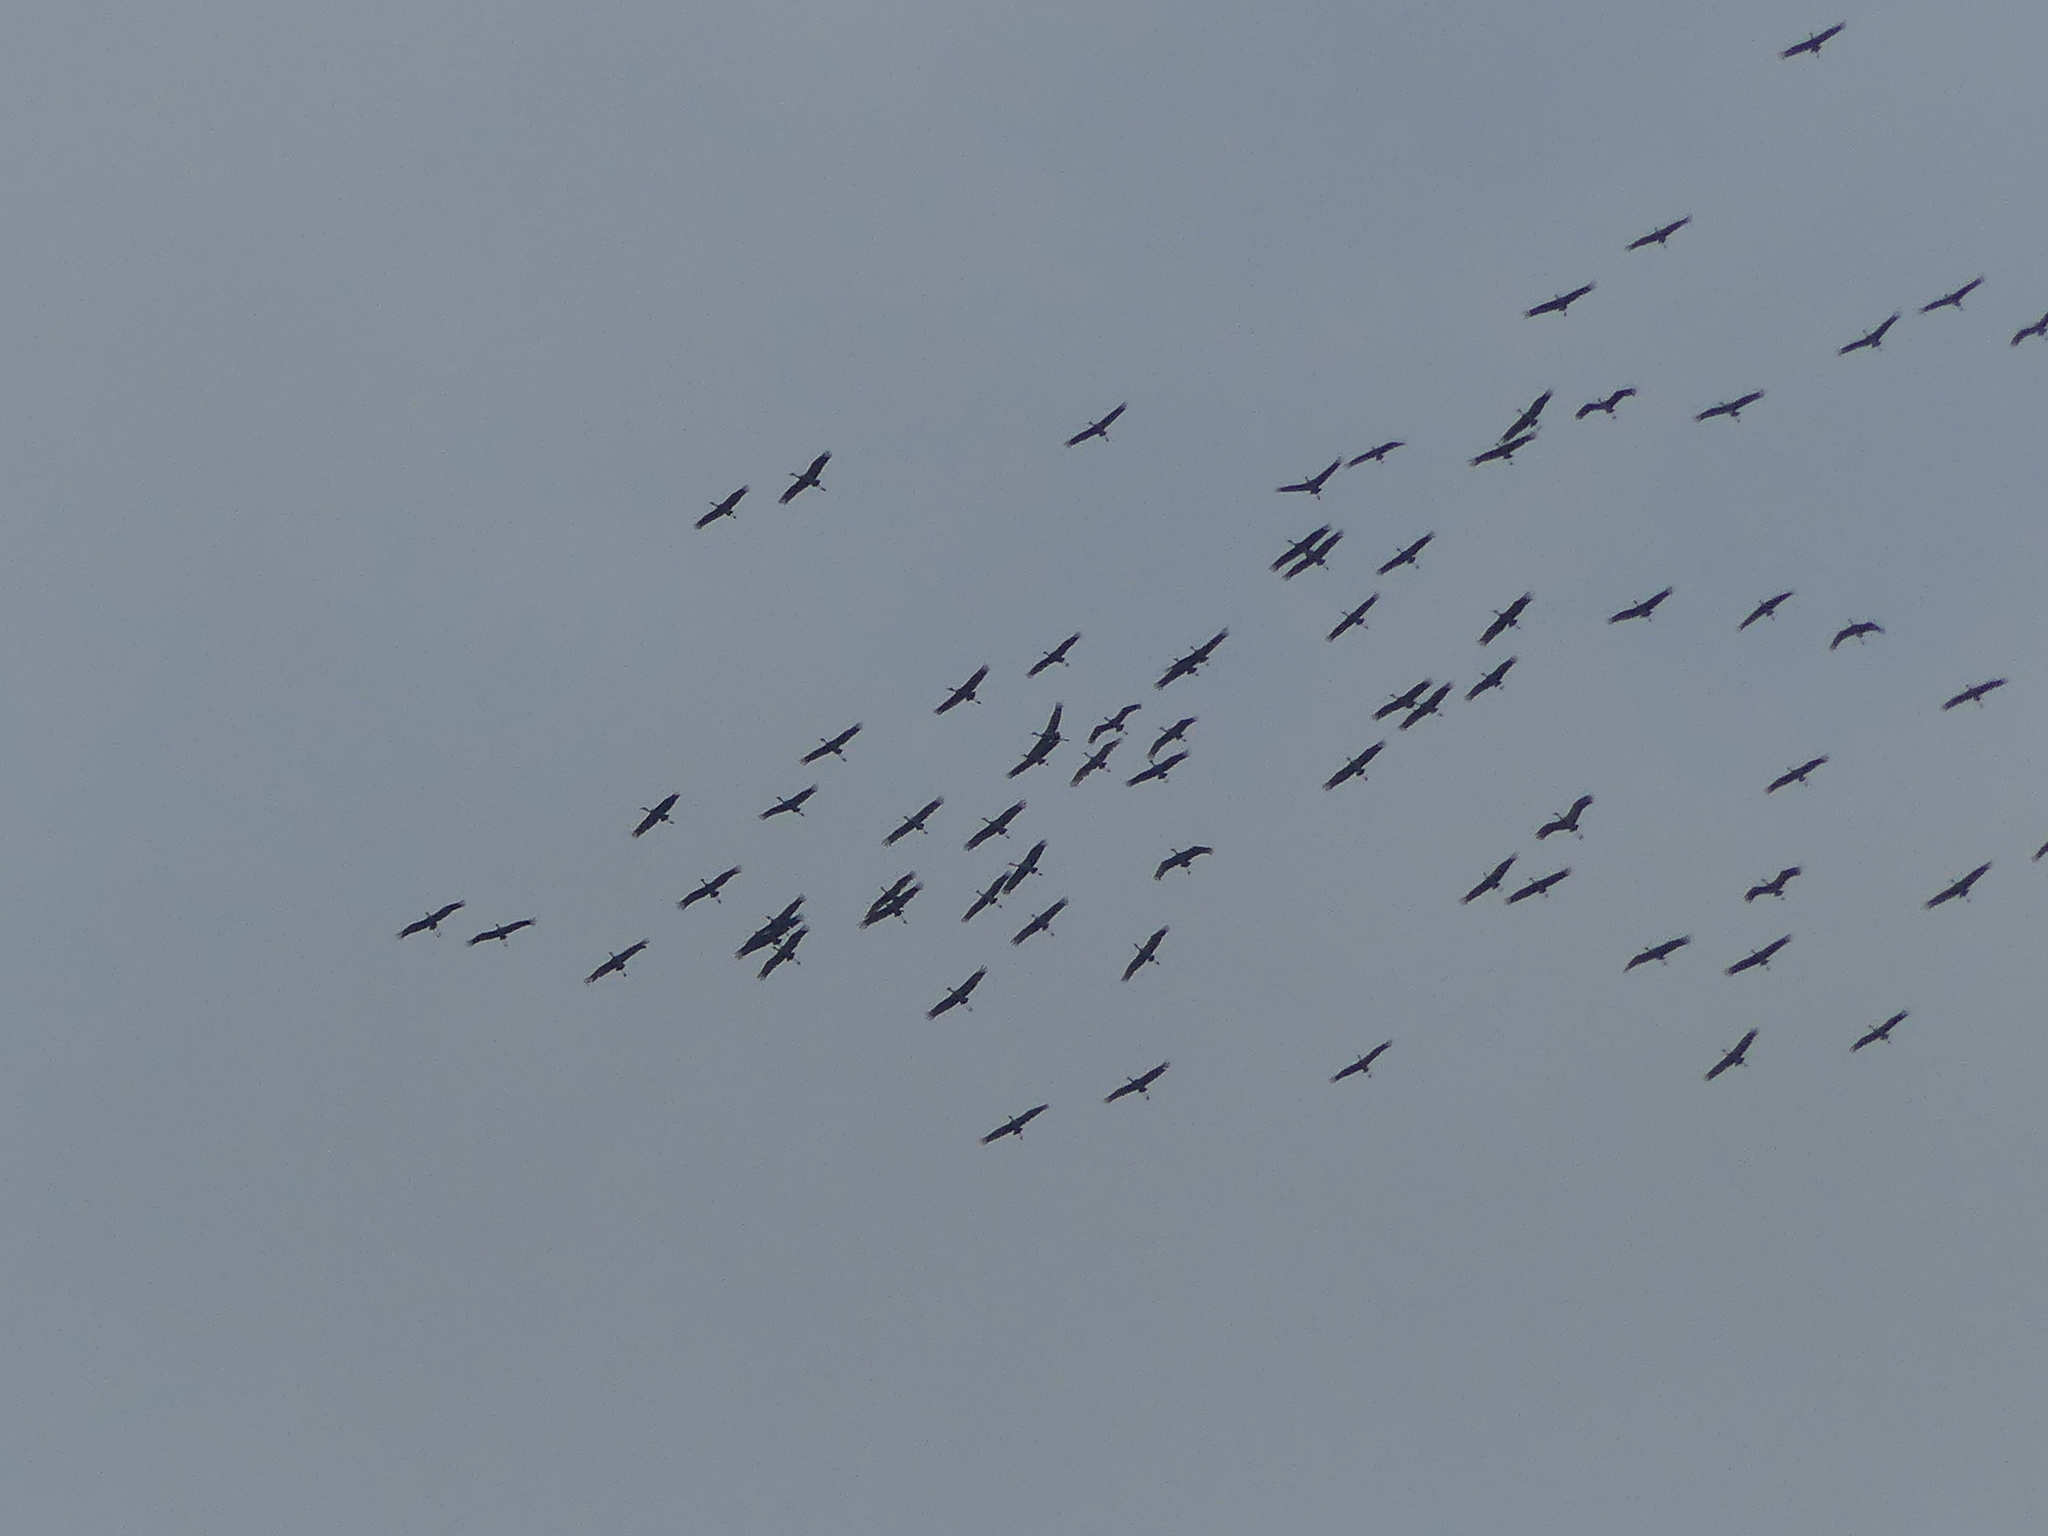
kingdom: Animalia
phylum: Chordata
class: Aves
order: Gruiformes
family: Gruidae
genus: Grus
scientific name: Grus canadensis
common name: Sandhill crane
